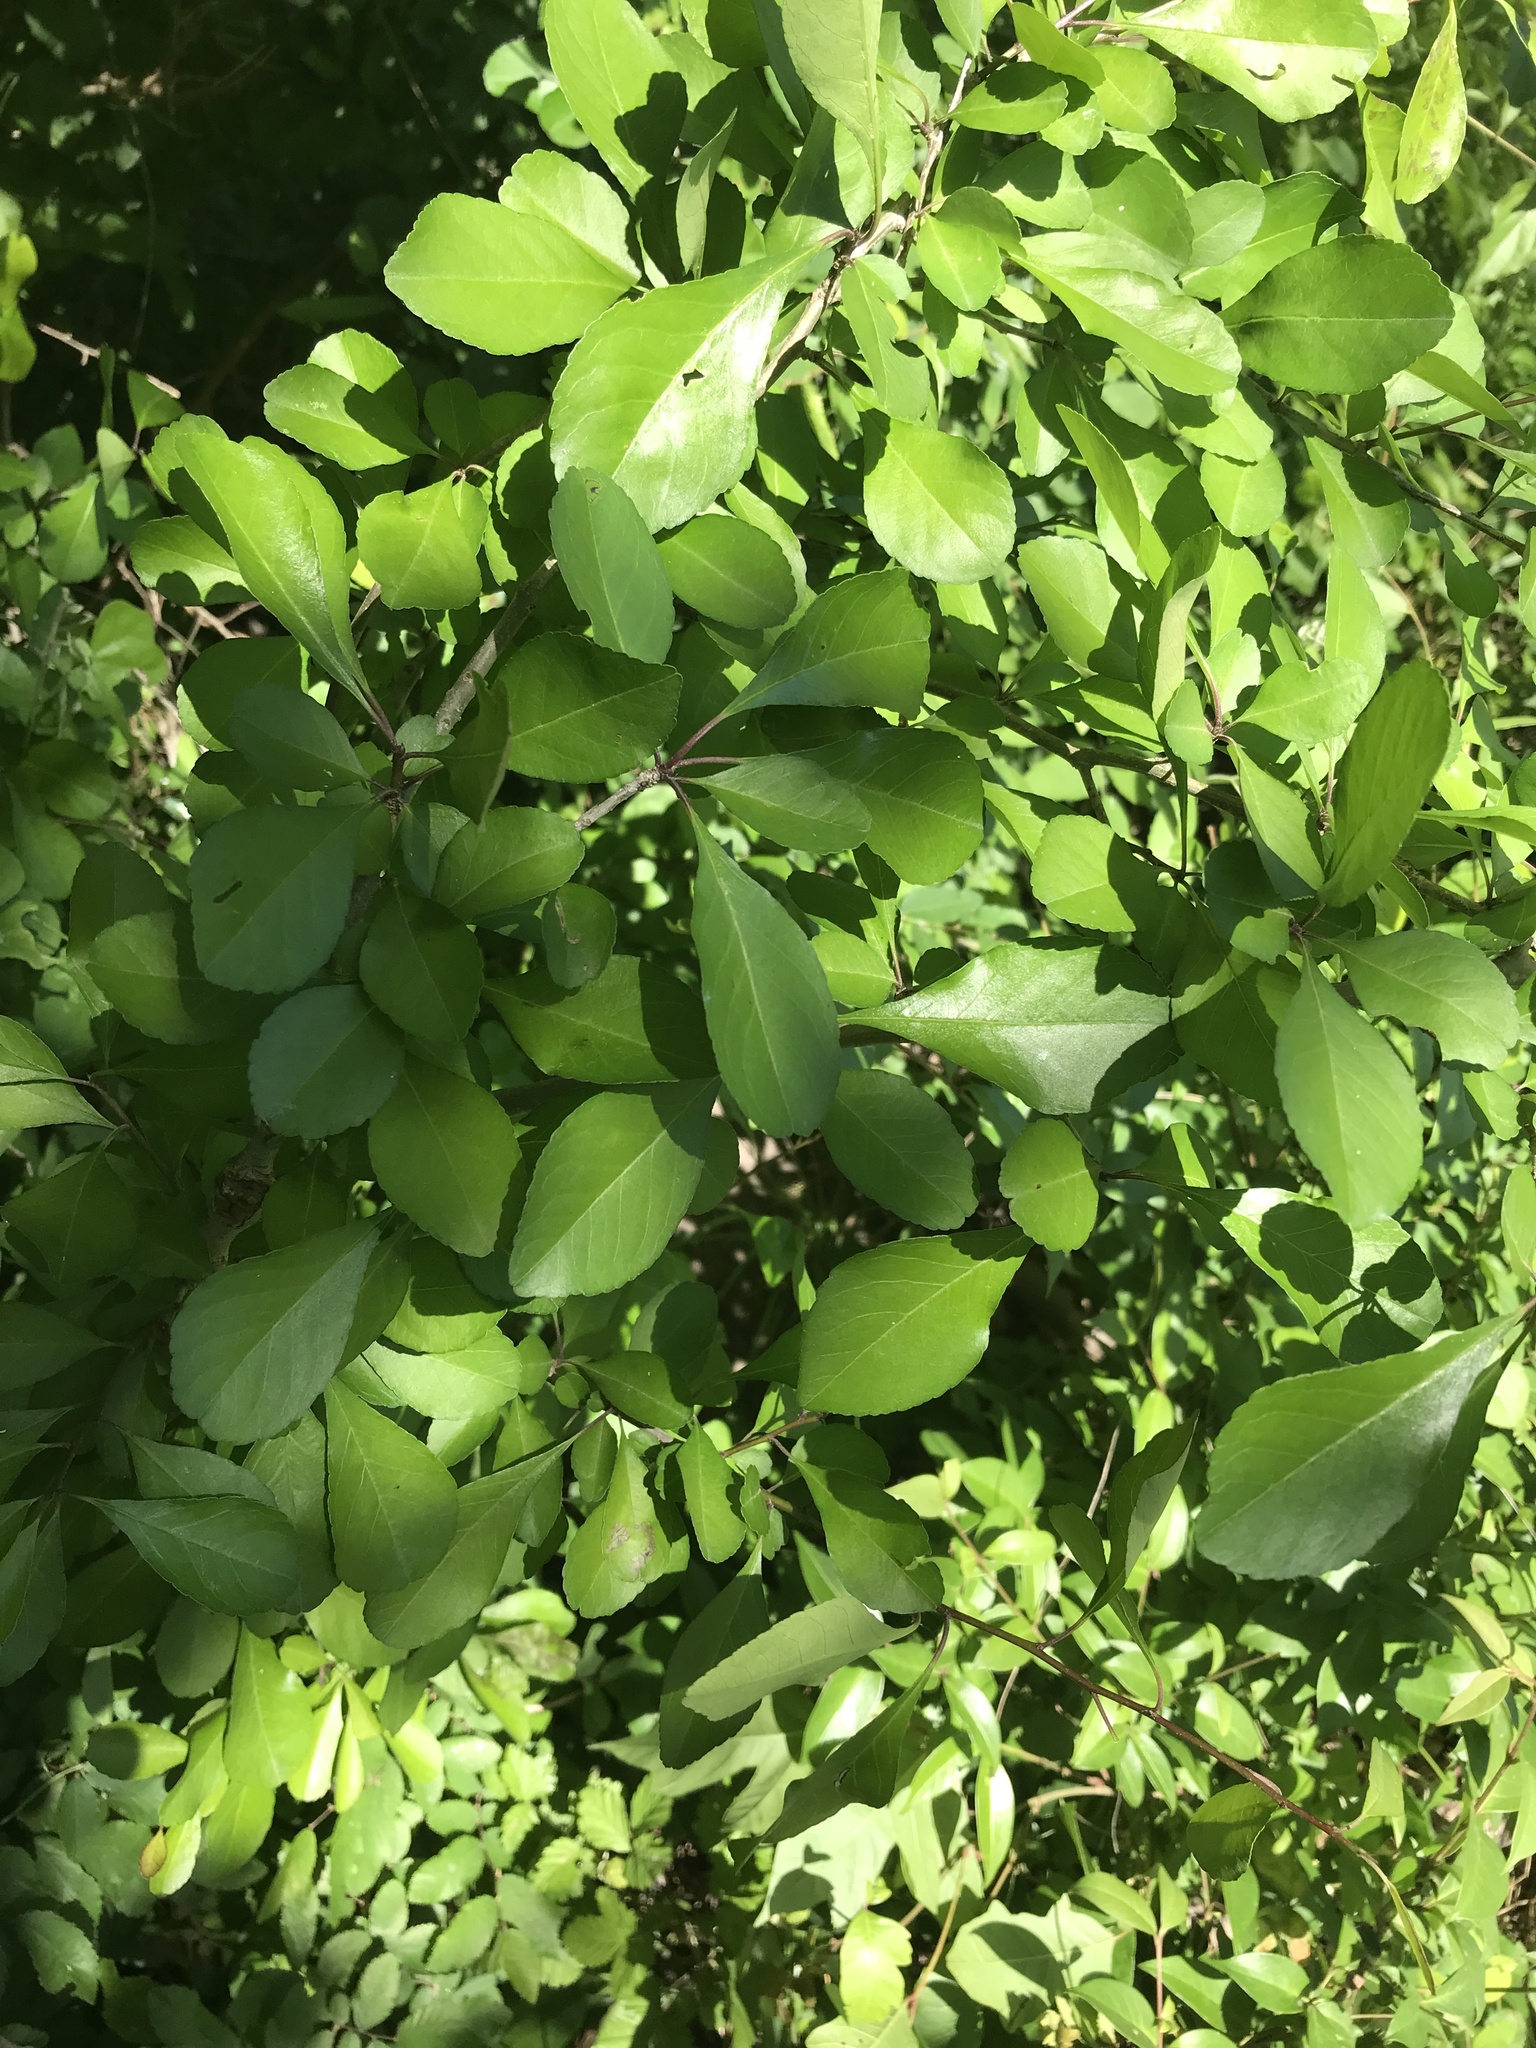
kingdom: Plantae
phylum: Tracheophyta
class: Magnoliopsida
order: Aquifoliales
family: Aquifoliaceae
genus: Ilex
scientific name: Ilex decidua
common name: Possum-haw
